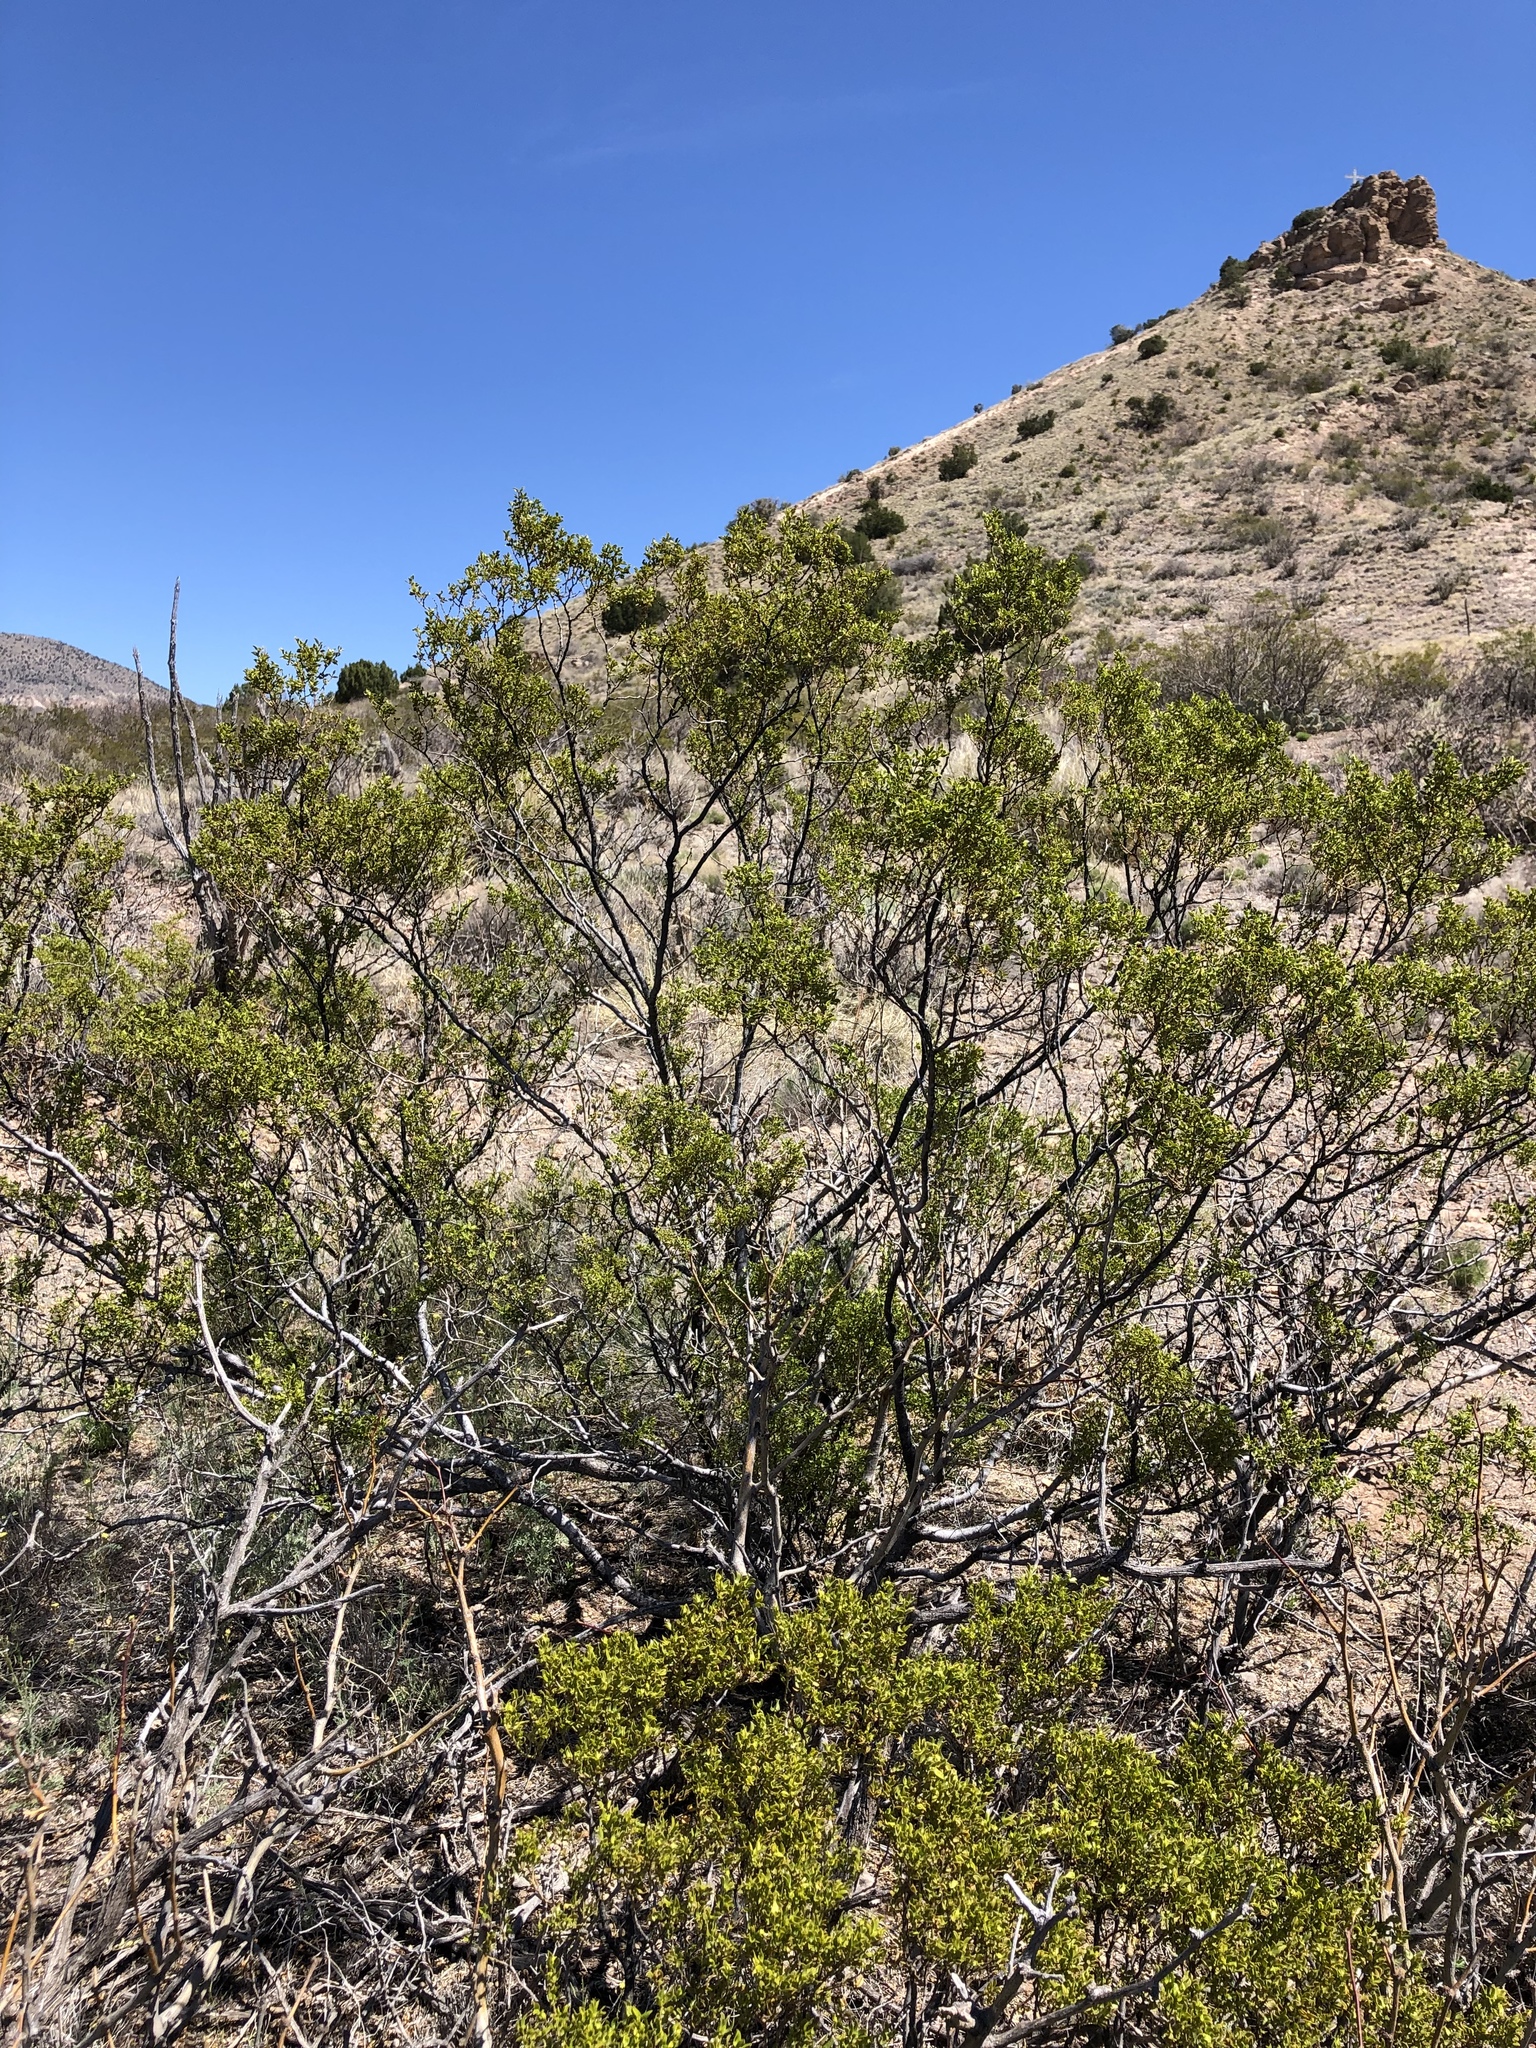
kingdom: Plantae
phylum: Tracheophyta
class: Magnoliopsida
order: Zygophyllales
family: Zygophyllaceae
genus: Larrea
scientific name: Larrea tridentata
